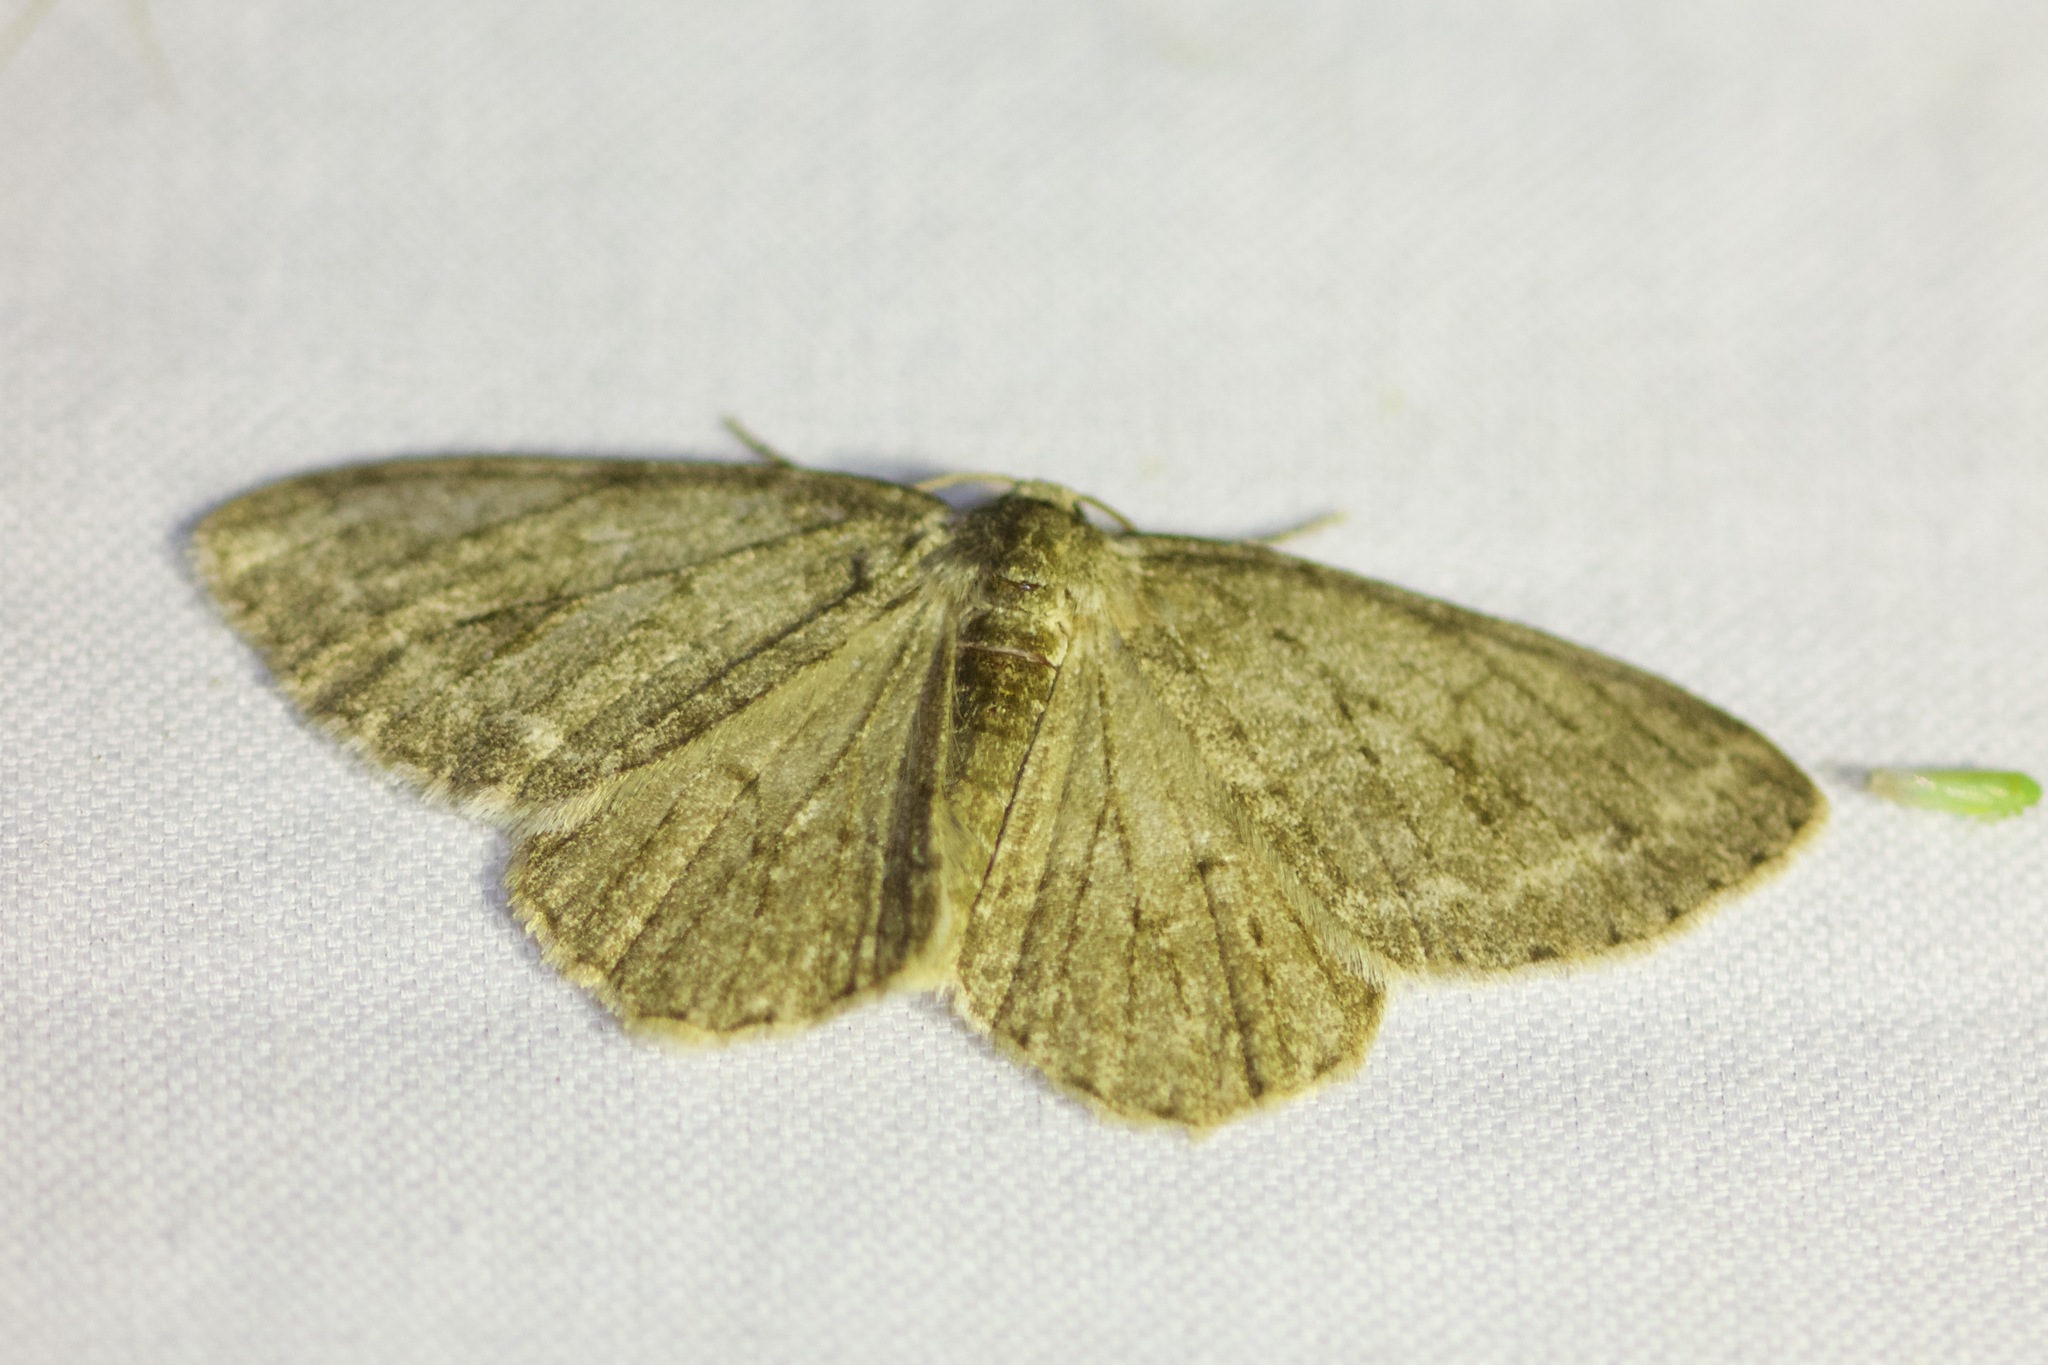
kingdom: Animalia
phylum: Arthropoda
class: Insecta
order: Lepidoptera
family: Geometridae
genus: Ectropis
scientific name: Ectropis crepuscularia
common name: Engrailed
